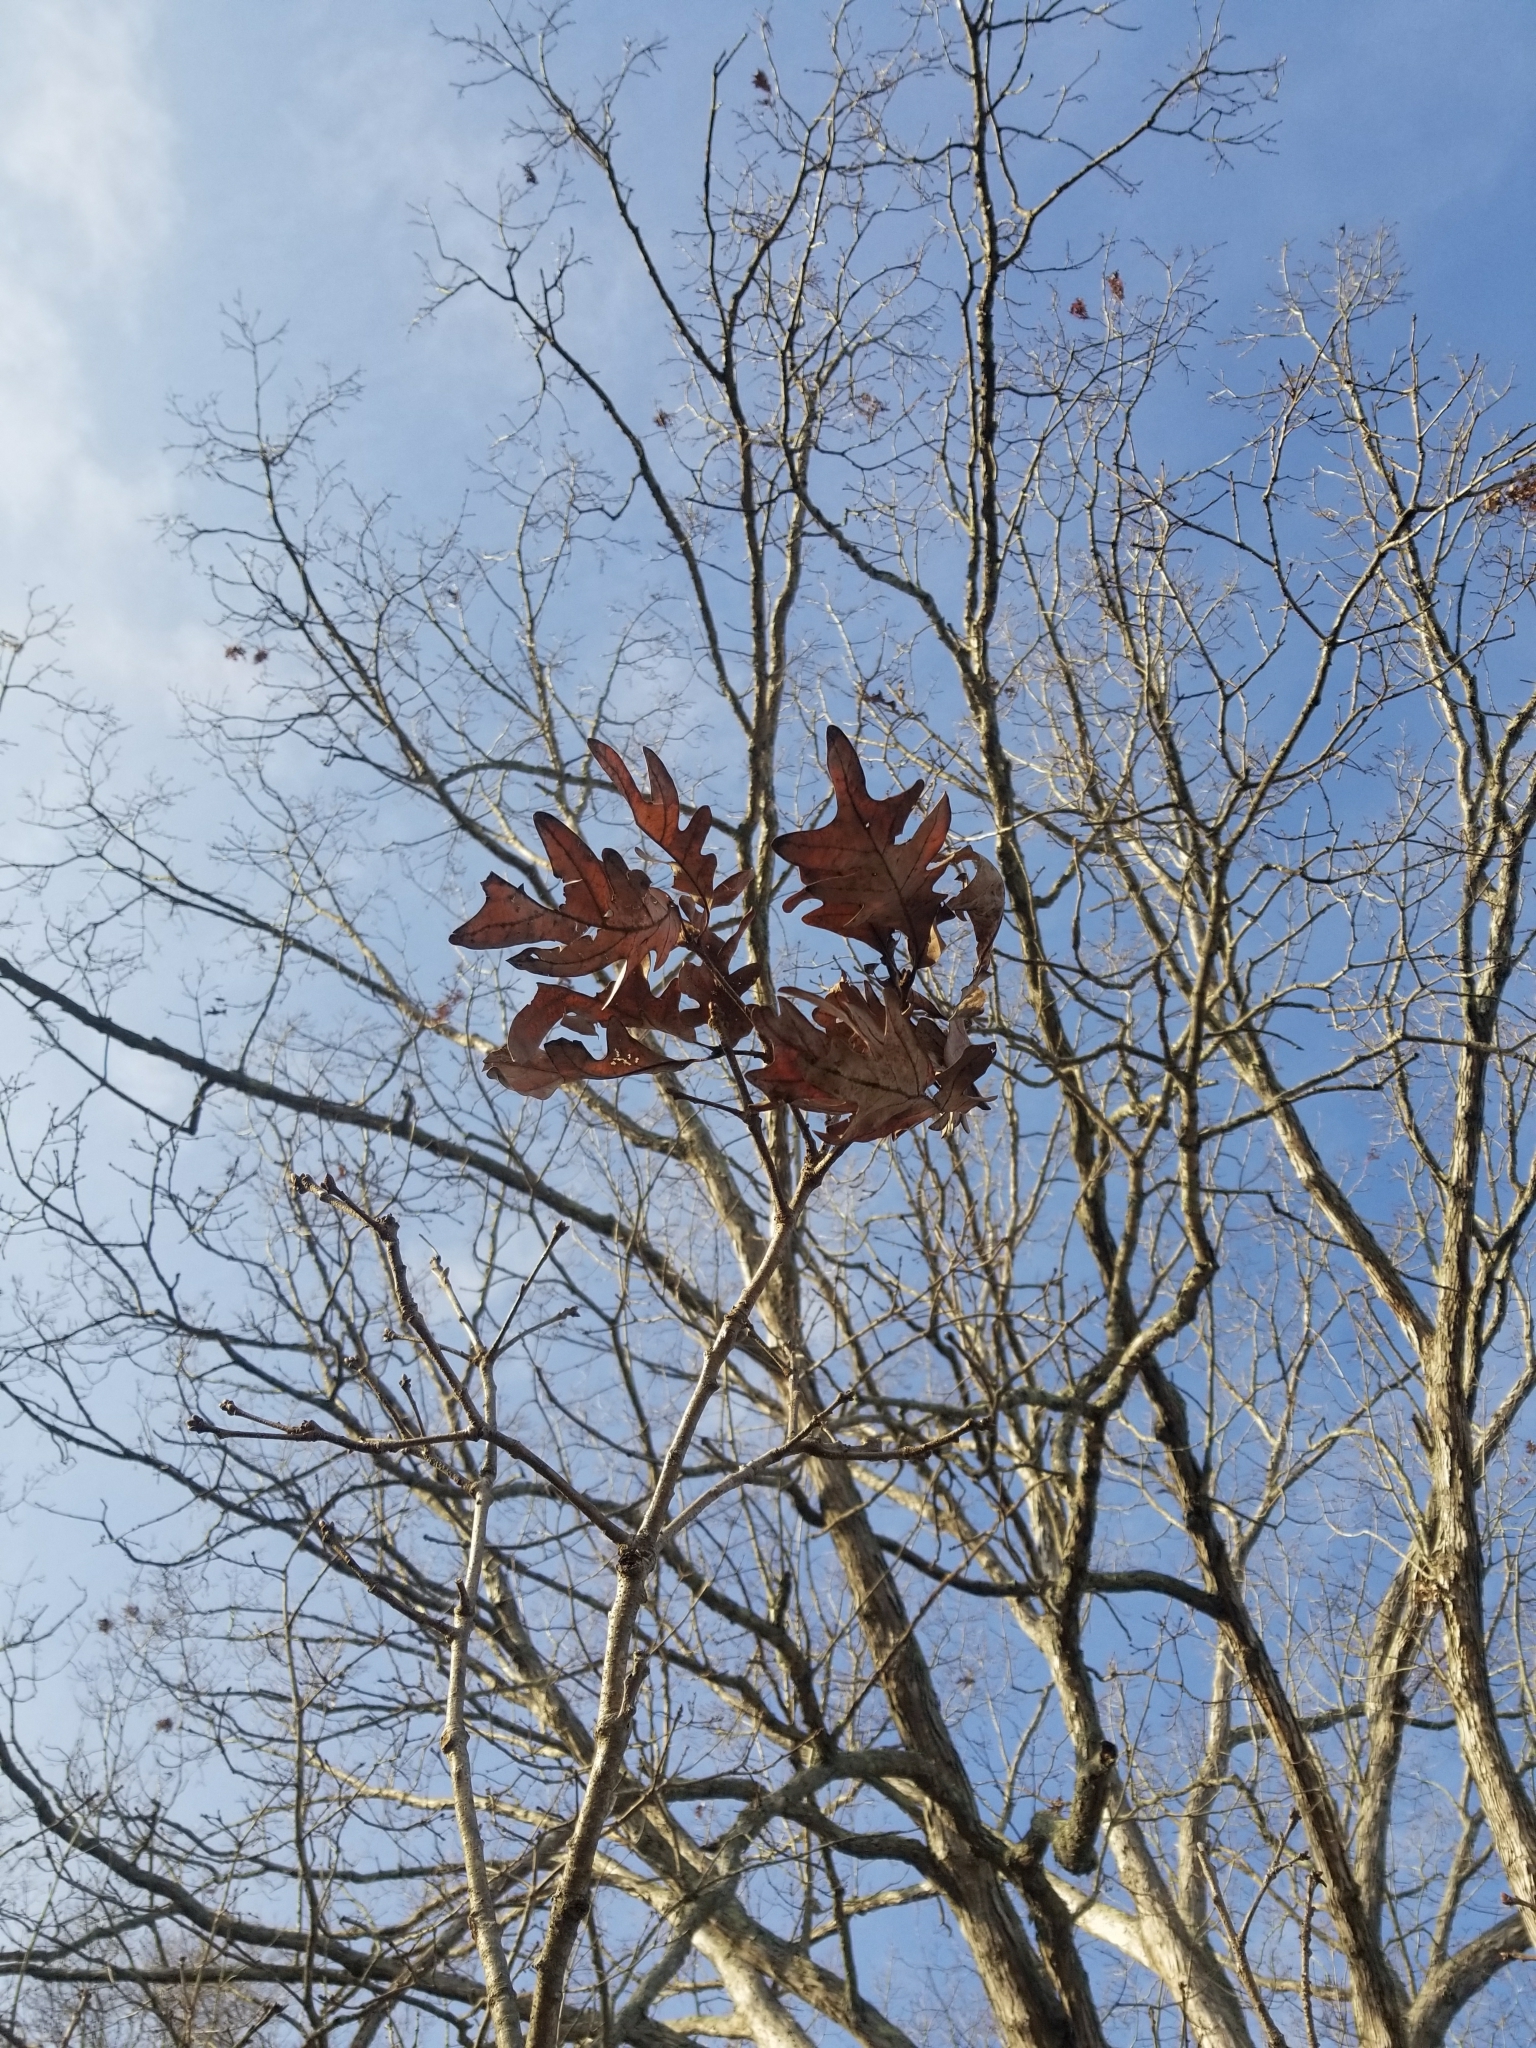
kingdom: Plantae
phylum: Tracheophyta
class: Magnoliopsida
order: Fagales
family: Fagaceae
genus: Quercus
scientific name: Quercus alba
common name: White oak
